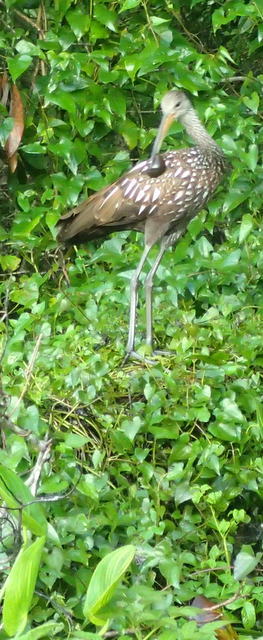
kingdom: Animalia
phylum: Chordata
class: Aves
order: Gruiformes
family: Aramidae
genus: Aramus
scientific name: Aramus guarauna
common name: Limpkin
